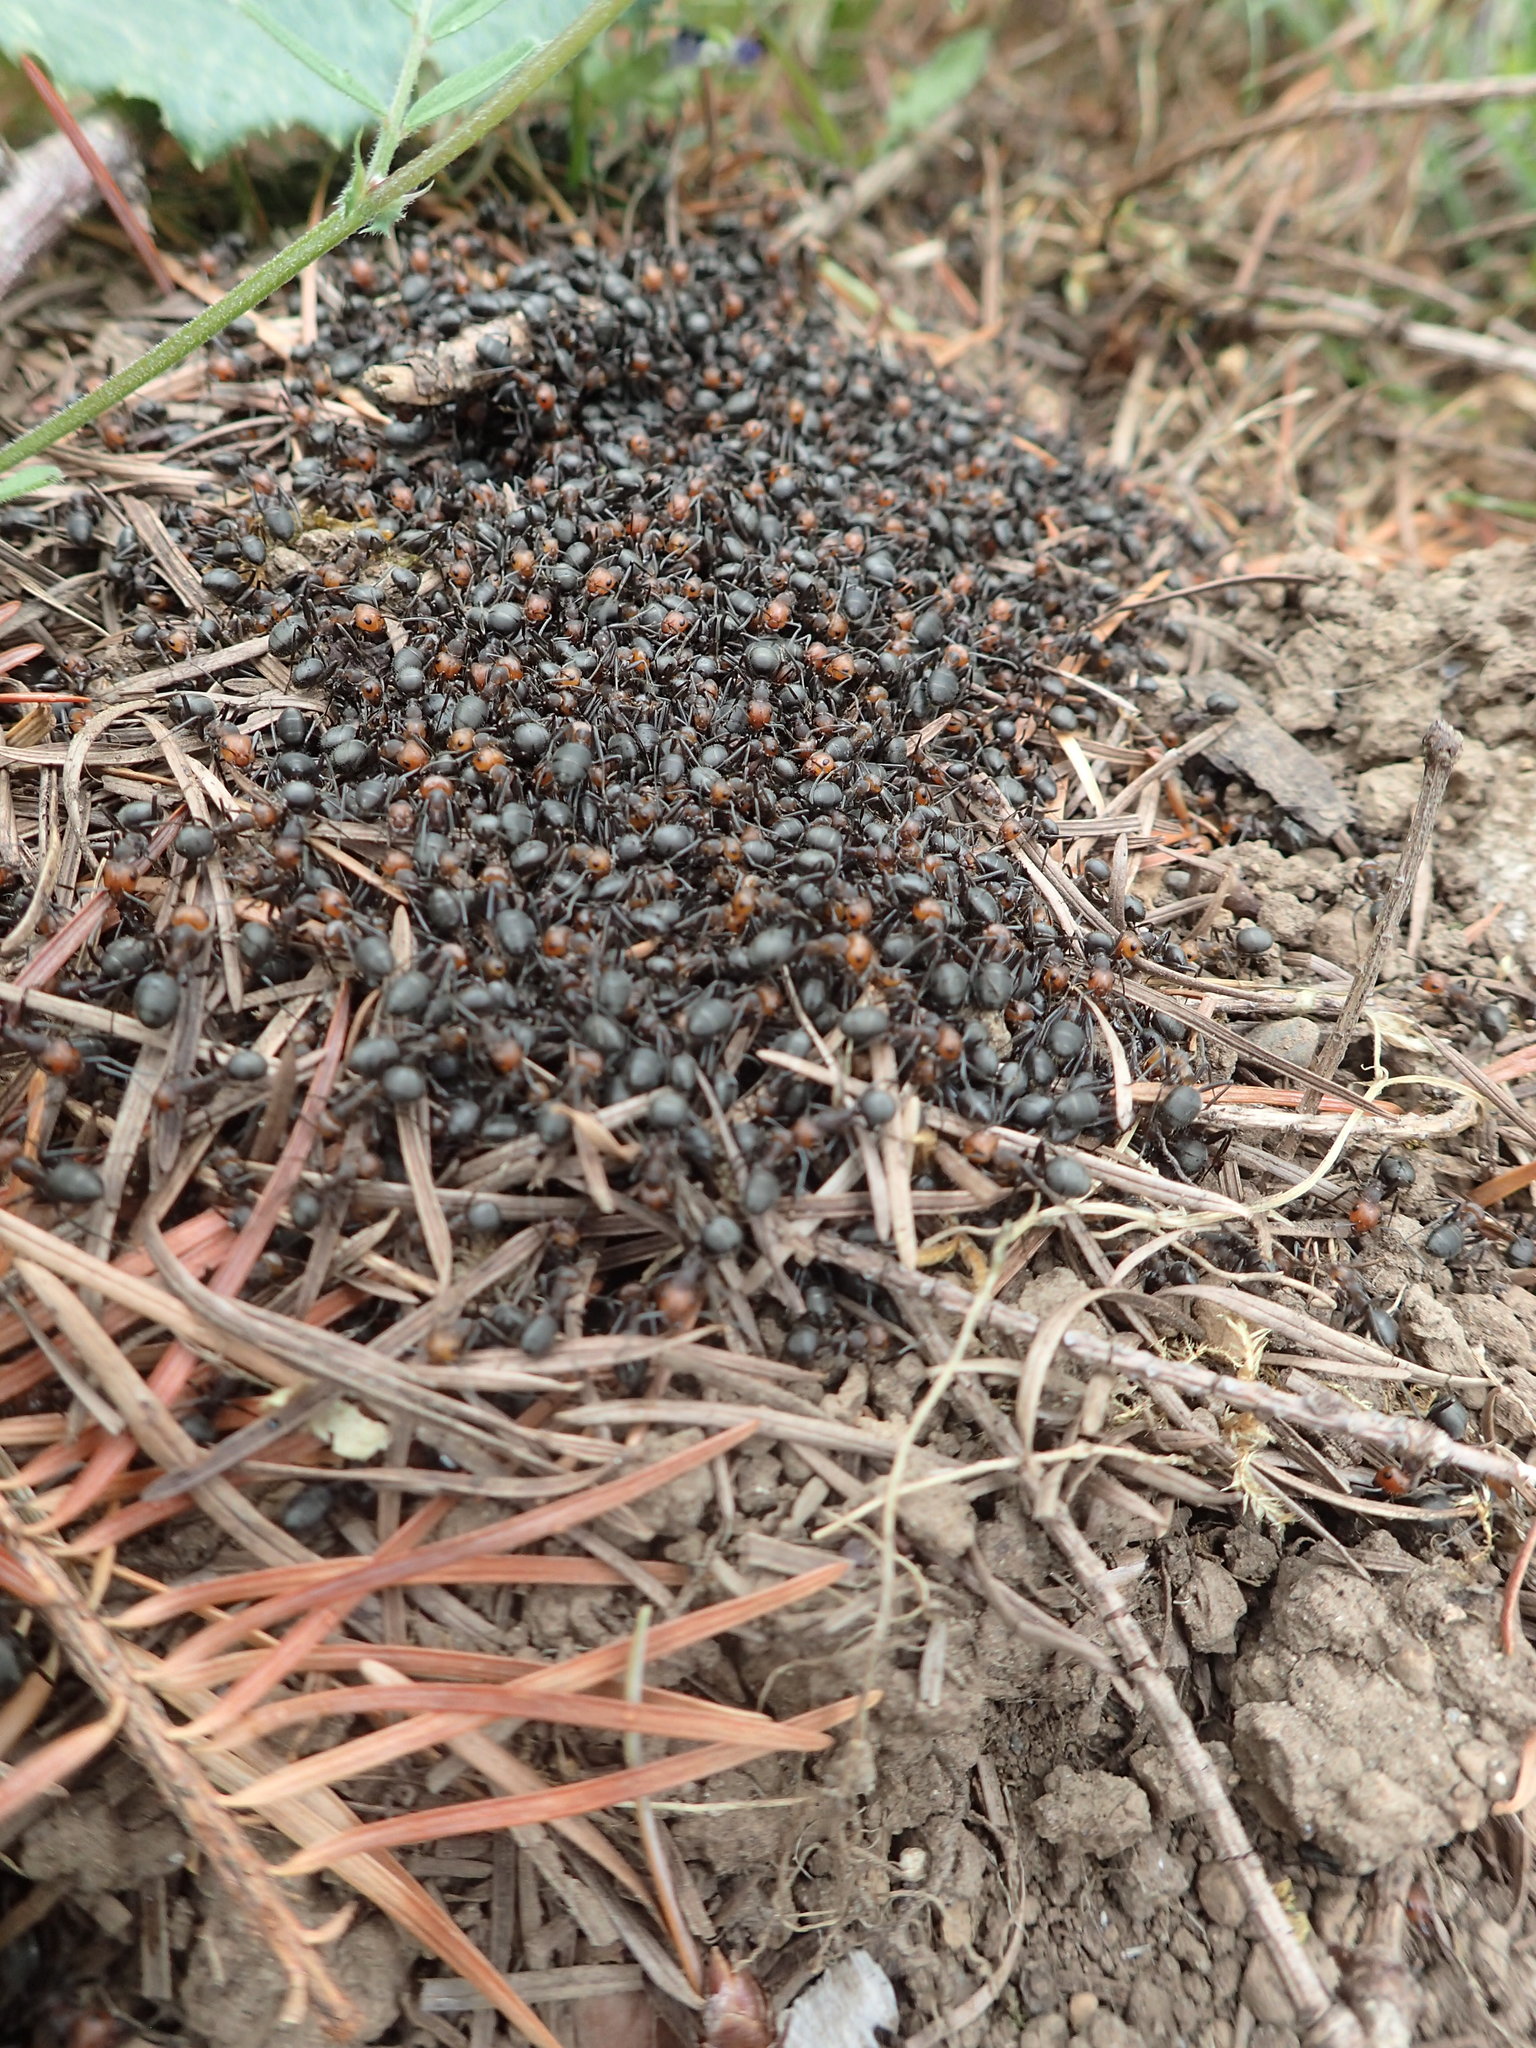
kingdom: Animalia
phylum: Arthropoda
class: Insecta
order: Hymenoptera
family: Formicidae
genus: Formica
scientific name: Formica obscuripes
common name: Western thatching ant
